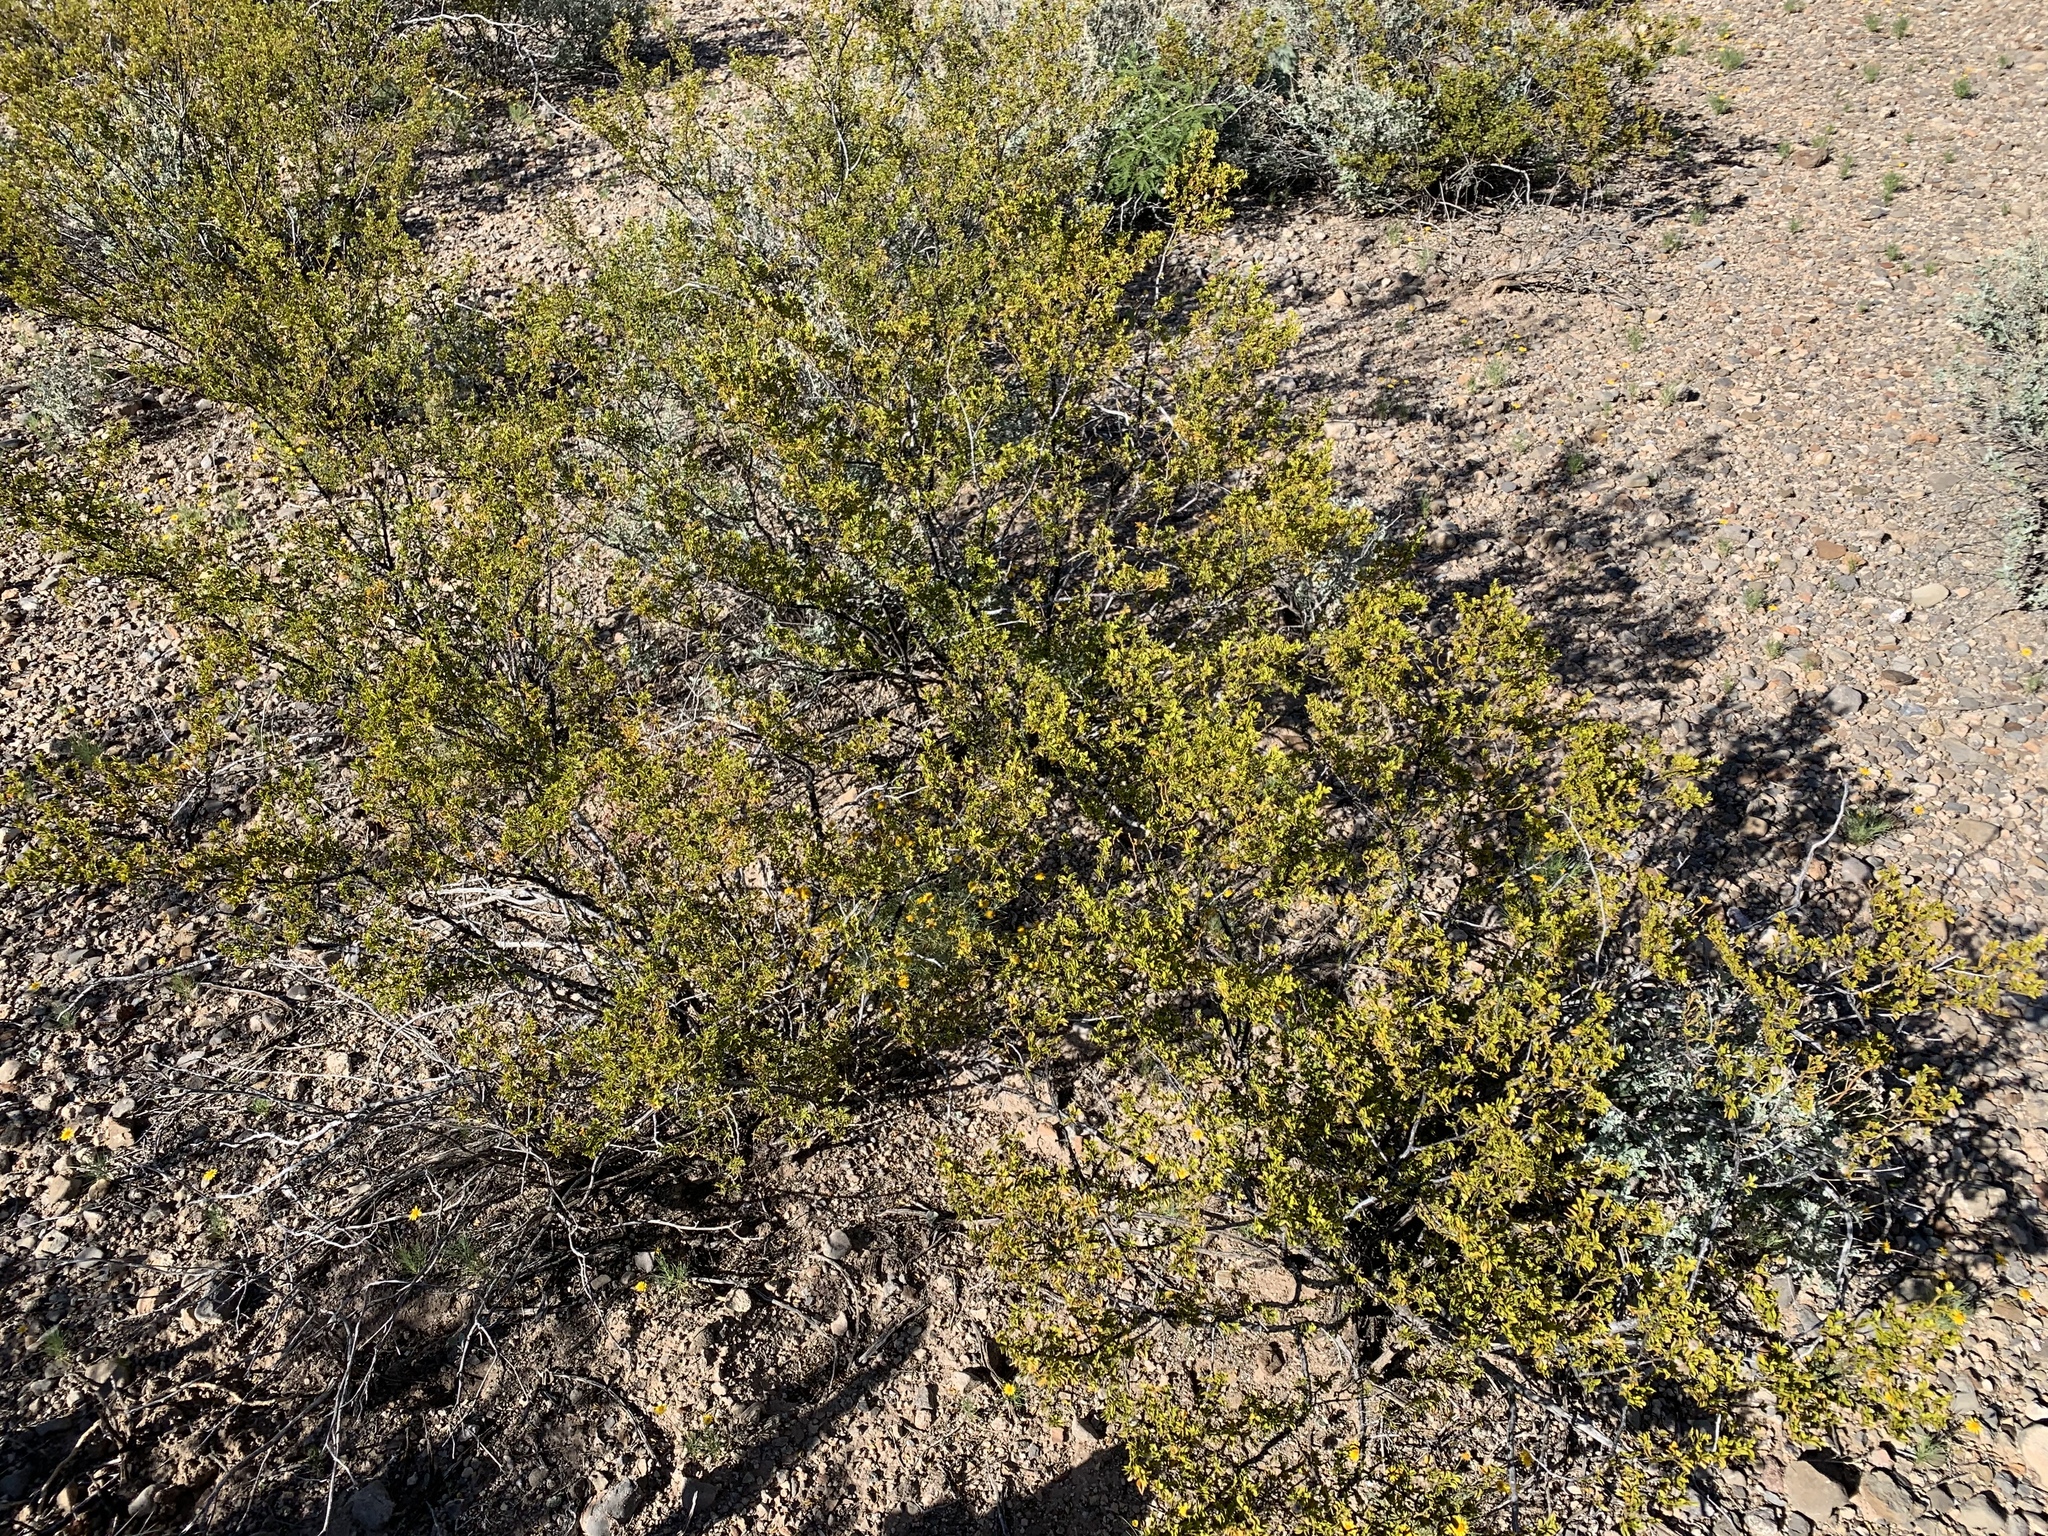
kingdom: Plantae
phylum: Tracheophyta
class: Magnoliopsida
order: Zygophyllales
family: Zygophyllaceae
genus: Larrea
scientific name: Larrea tridentata
